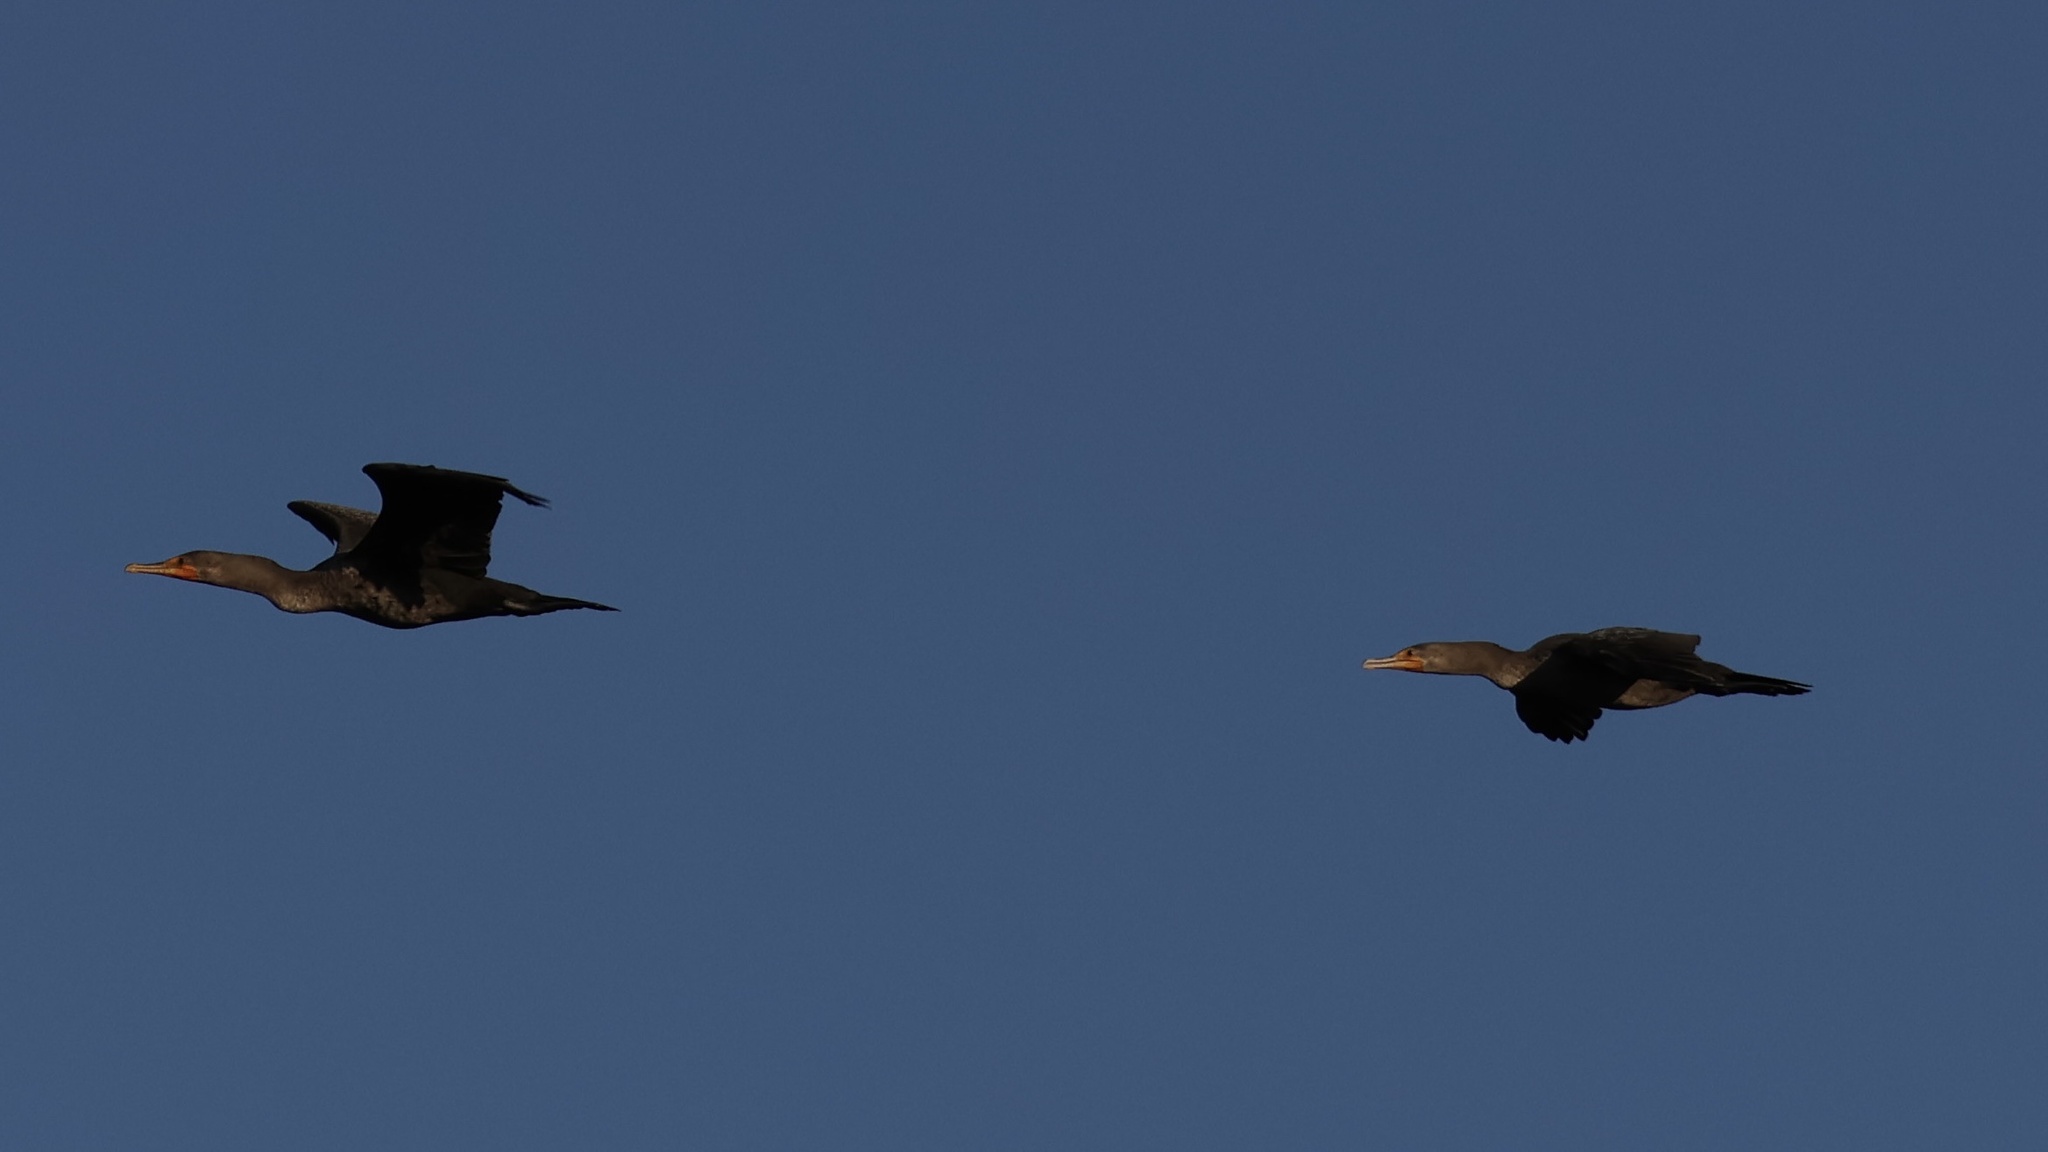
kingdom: Animalia
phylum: Chordata
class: Aves
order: Suliformes
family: Phalacrocoracidae
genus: Phalacrocorax
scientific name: Phalacrocorax auritus
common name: Double-crested cormorant
